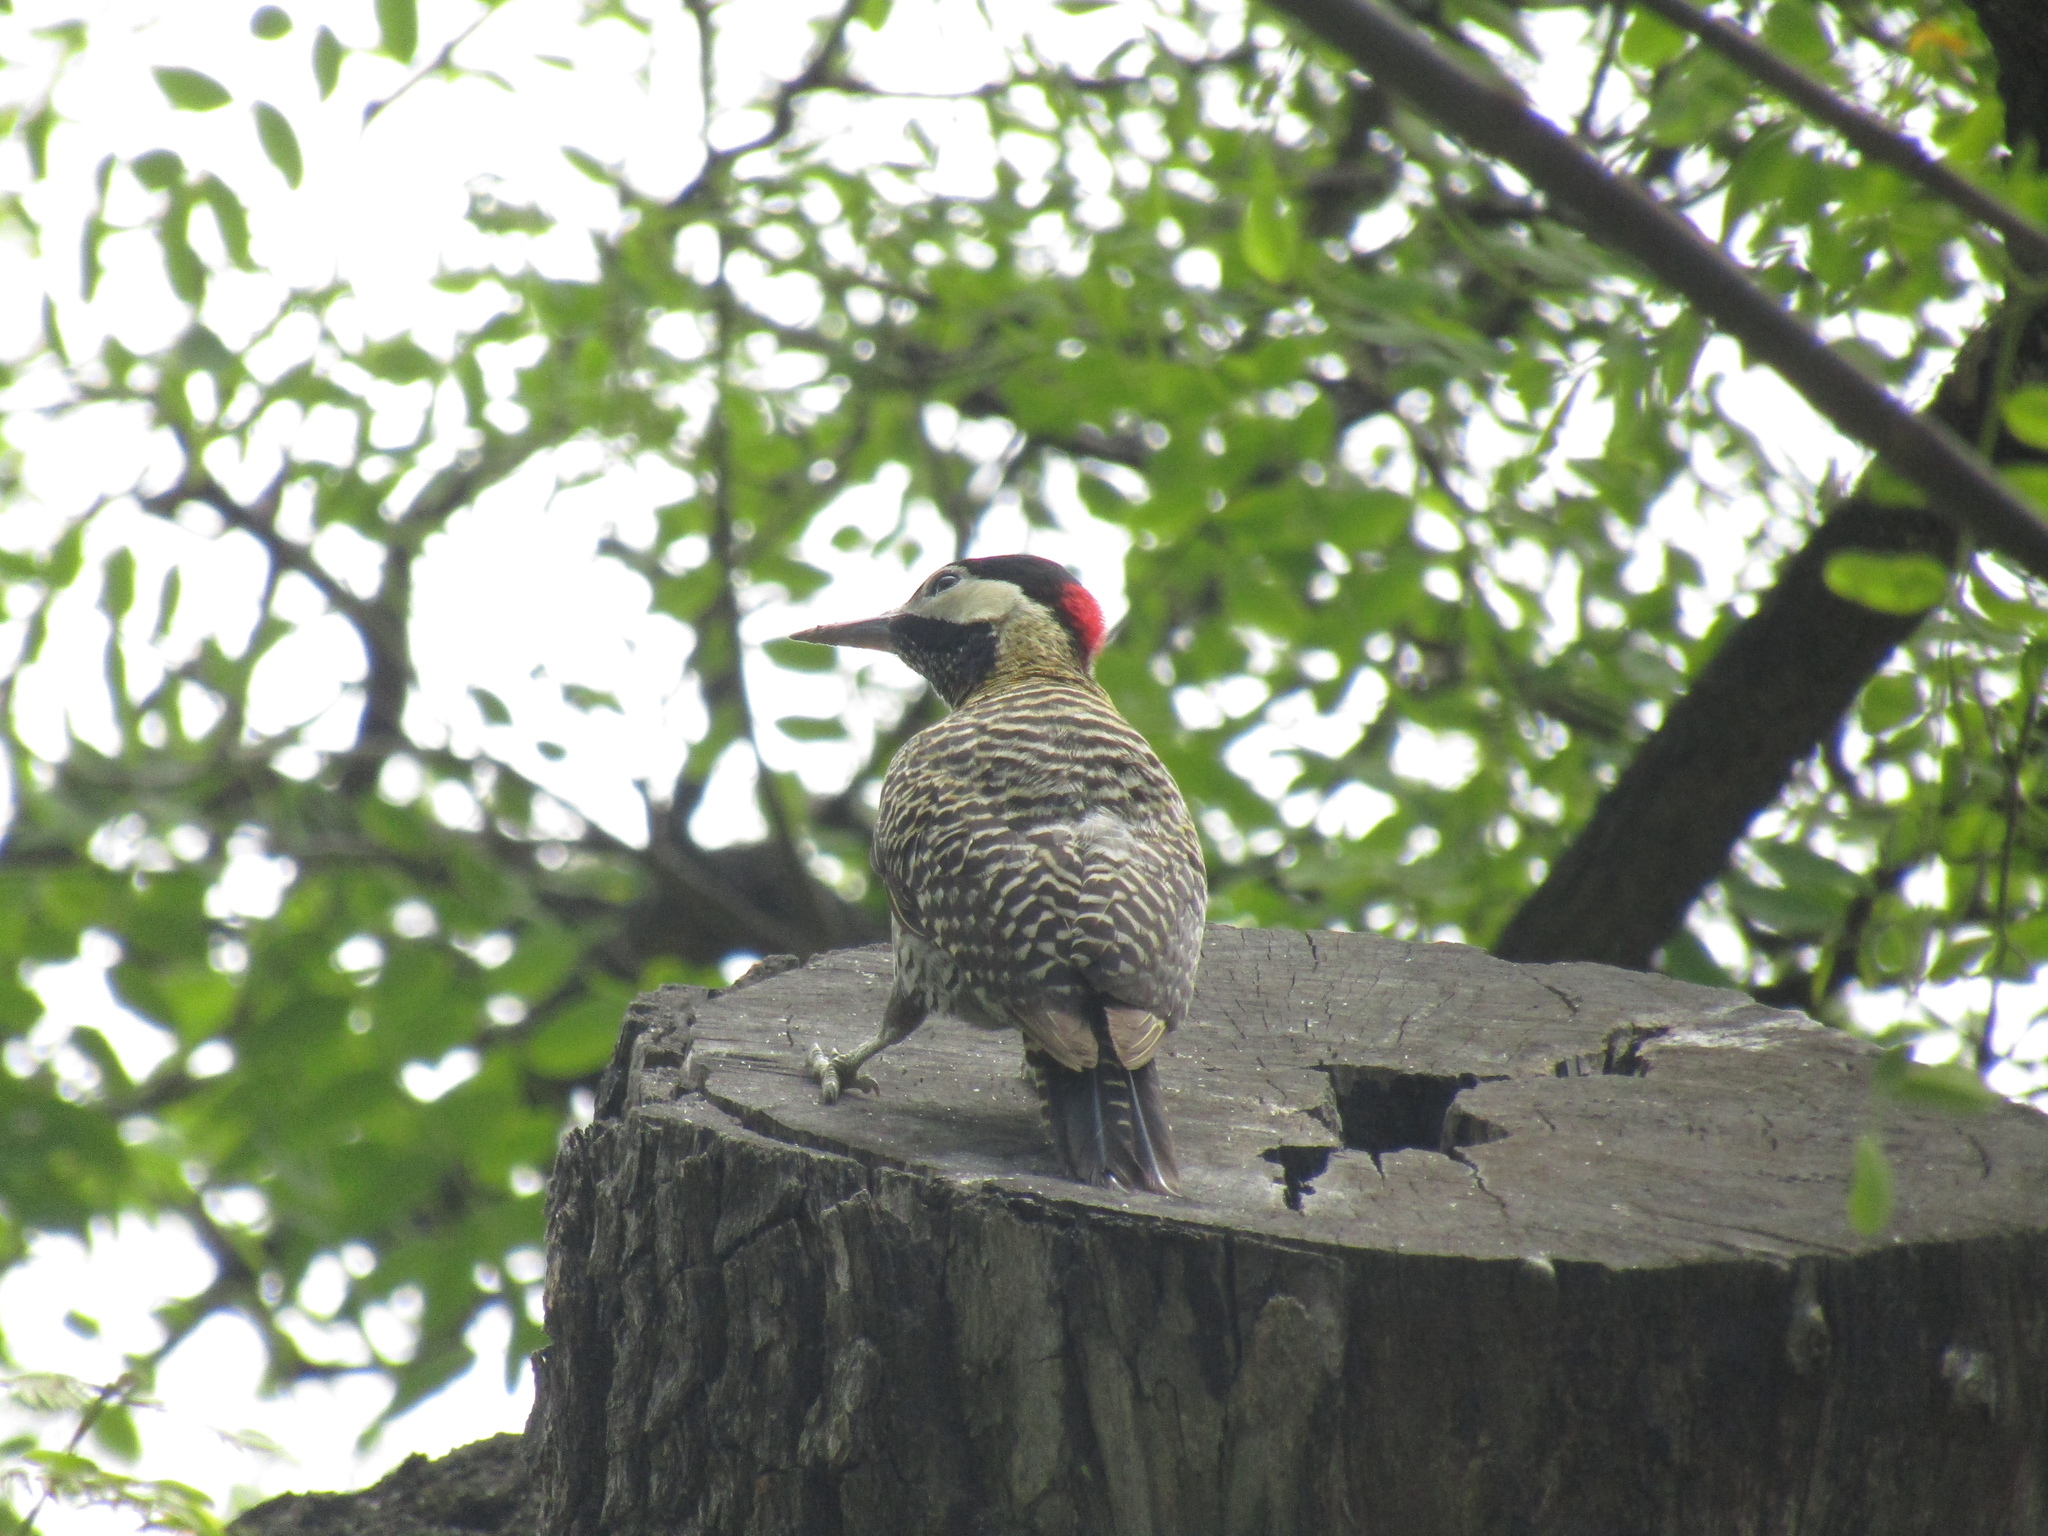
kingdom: Animalia
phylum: Chordata
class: Aves
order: Piciformes
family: Picidae
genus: Colaptes
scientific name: Colaptes melanochloros
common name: Green-barred woodpecker
